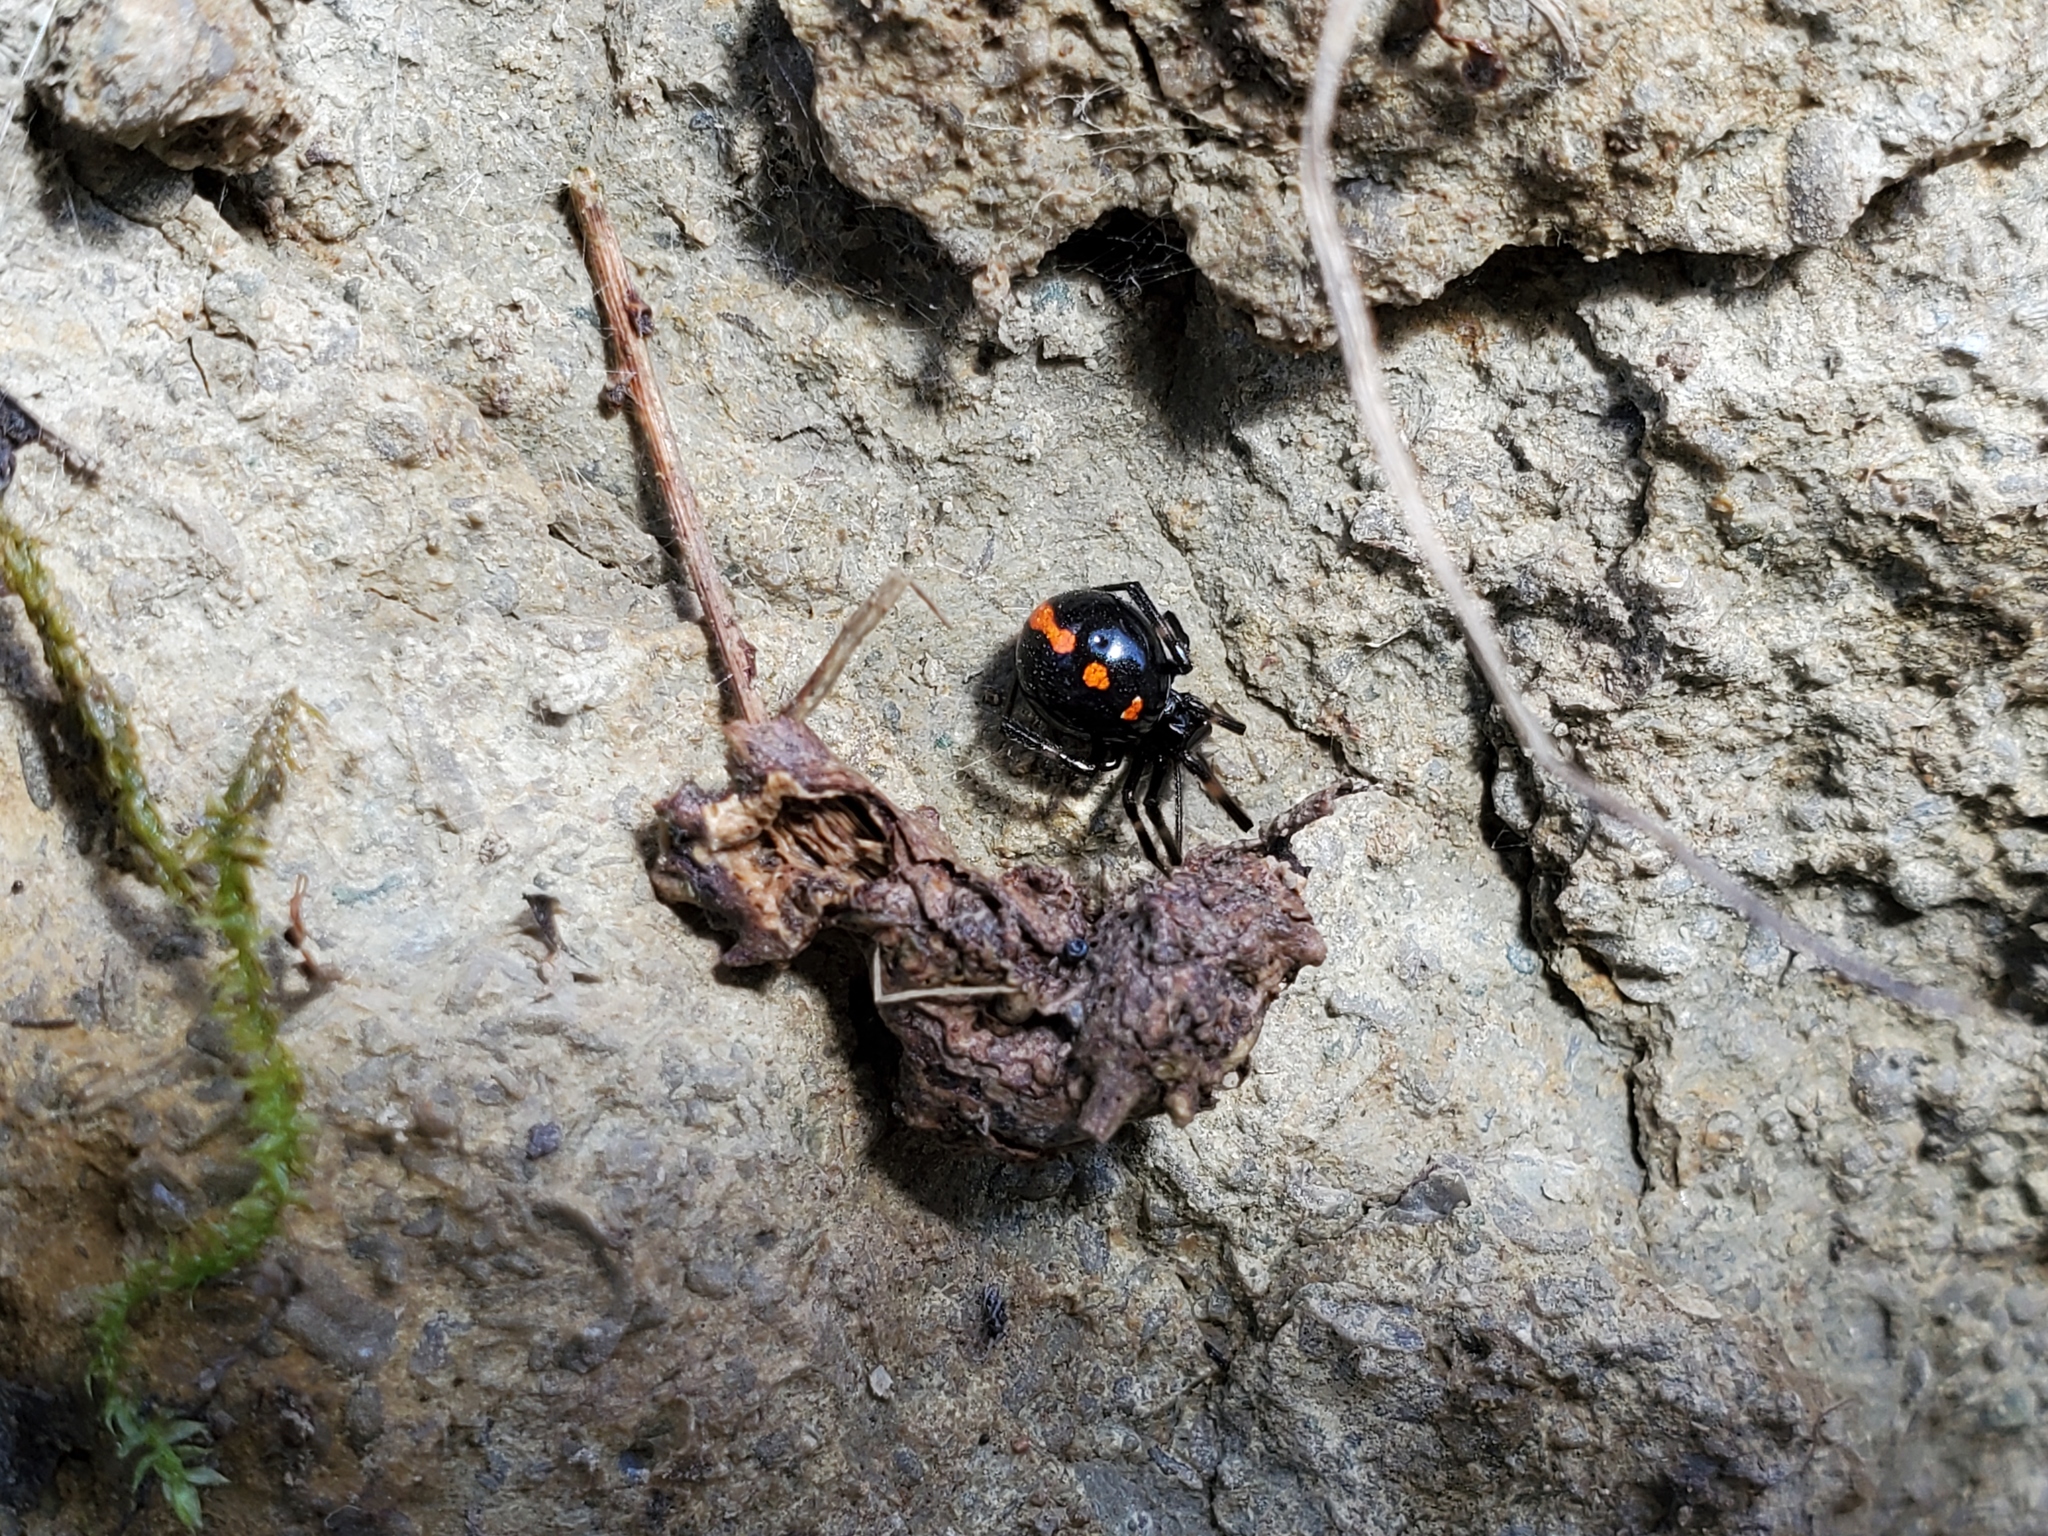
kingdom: Animalia
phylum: Arthropoda
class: Arachnida
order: Araneae
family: Theridiidae
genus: Latrodectus
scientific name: Latrodectus mactans
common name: Cobweb spiders
